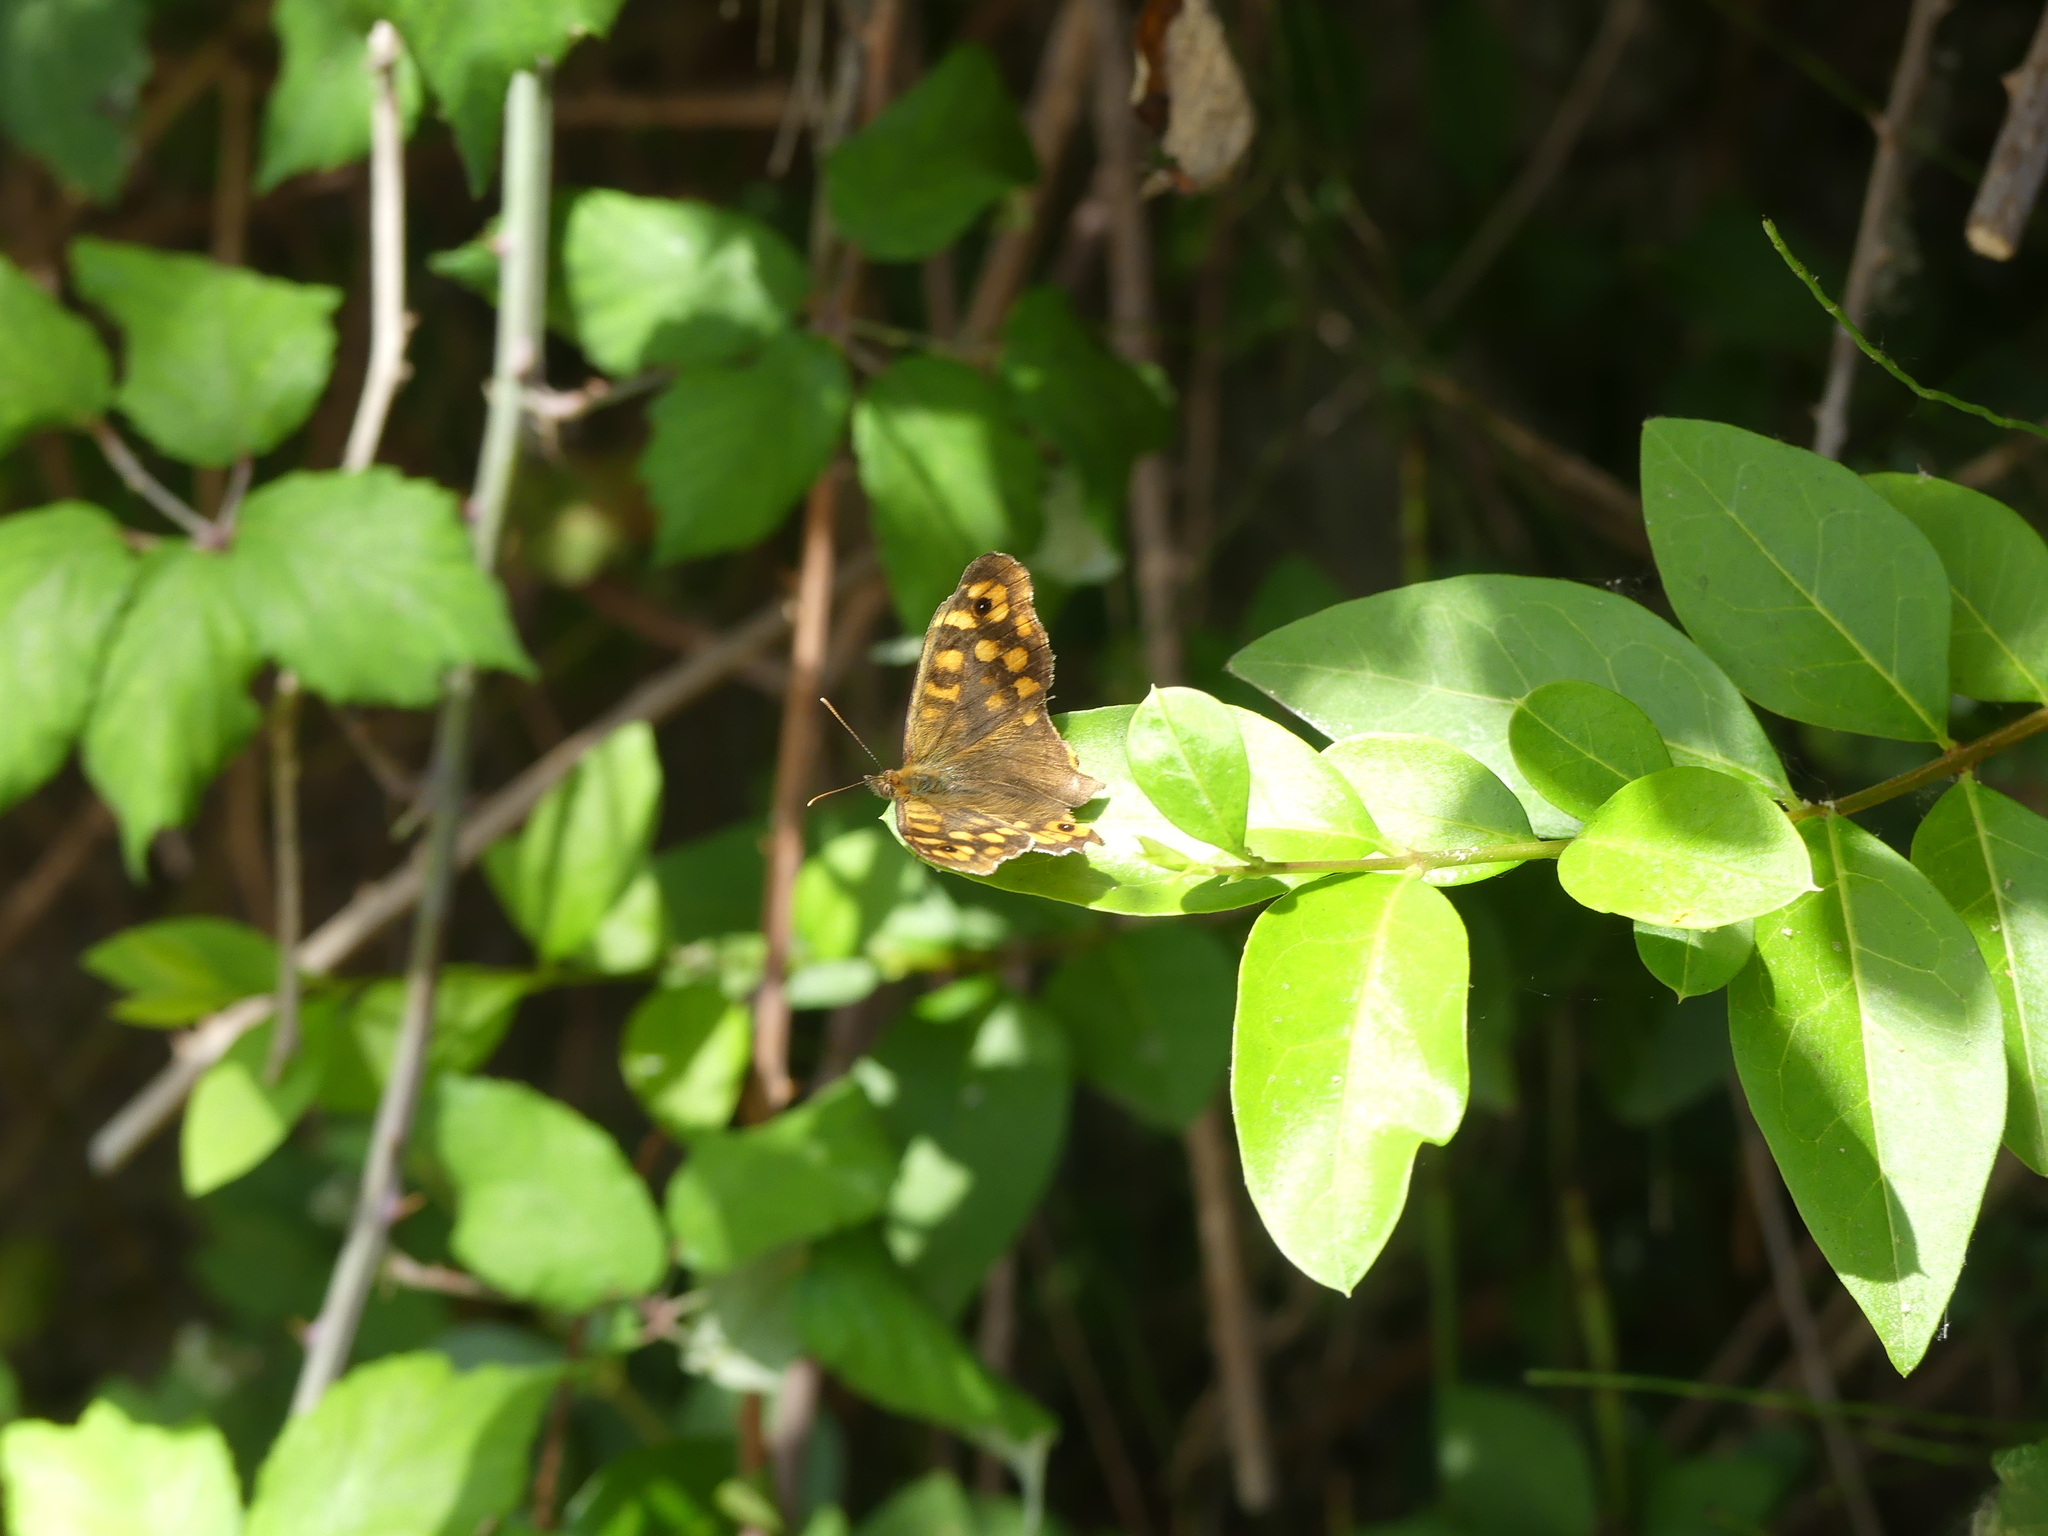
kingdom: Animalia
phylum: Arthropoda
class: Insecta
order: Lepidoptera
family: Nymphalidae
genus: Pararge
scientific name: Pararge aegeria
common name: Speckled wood
